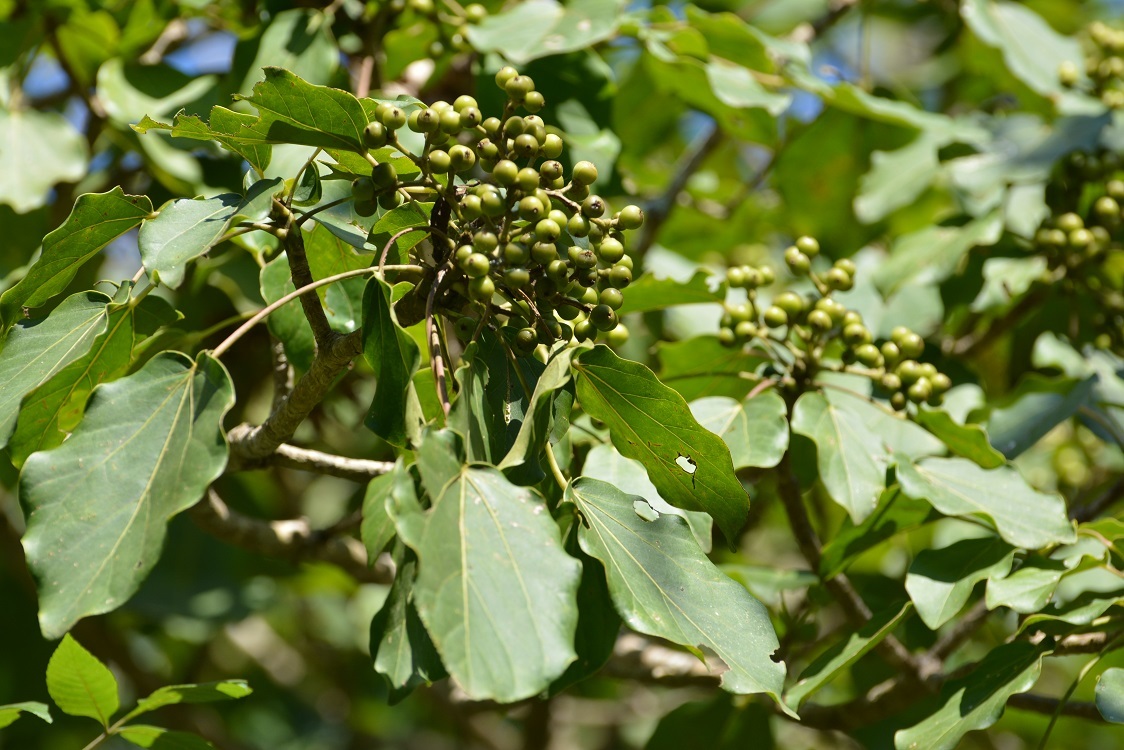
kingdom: Plantae
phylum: Tracheophyta
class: Magnoliopsida
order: Apiales
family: Araliaceae
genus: Oreopanax
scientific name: Oreopanax capitatus
